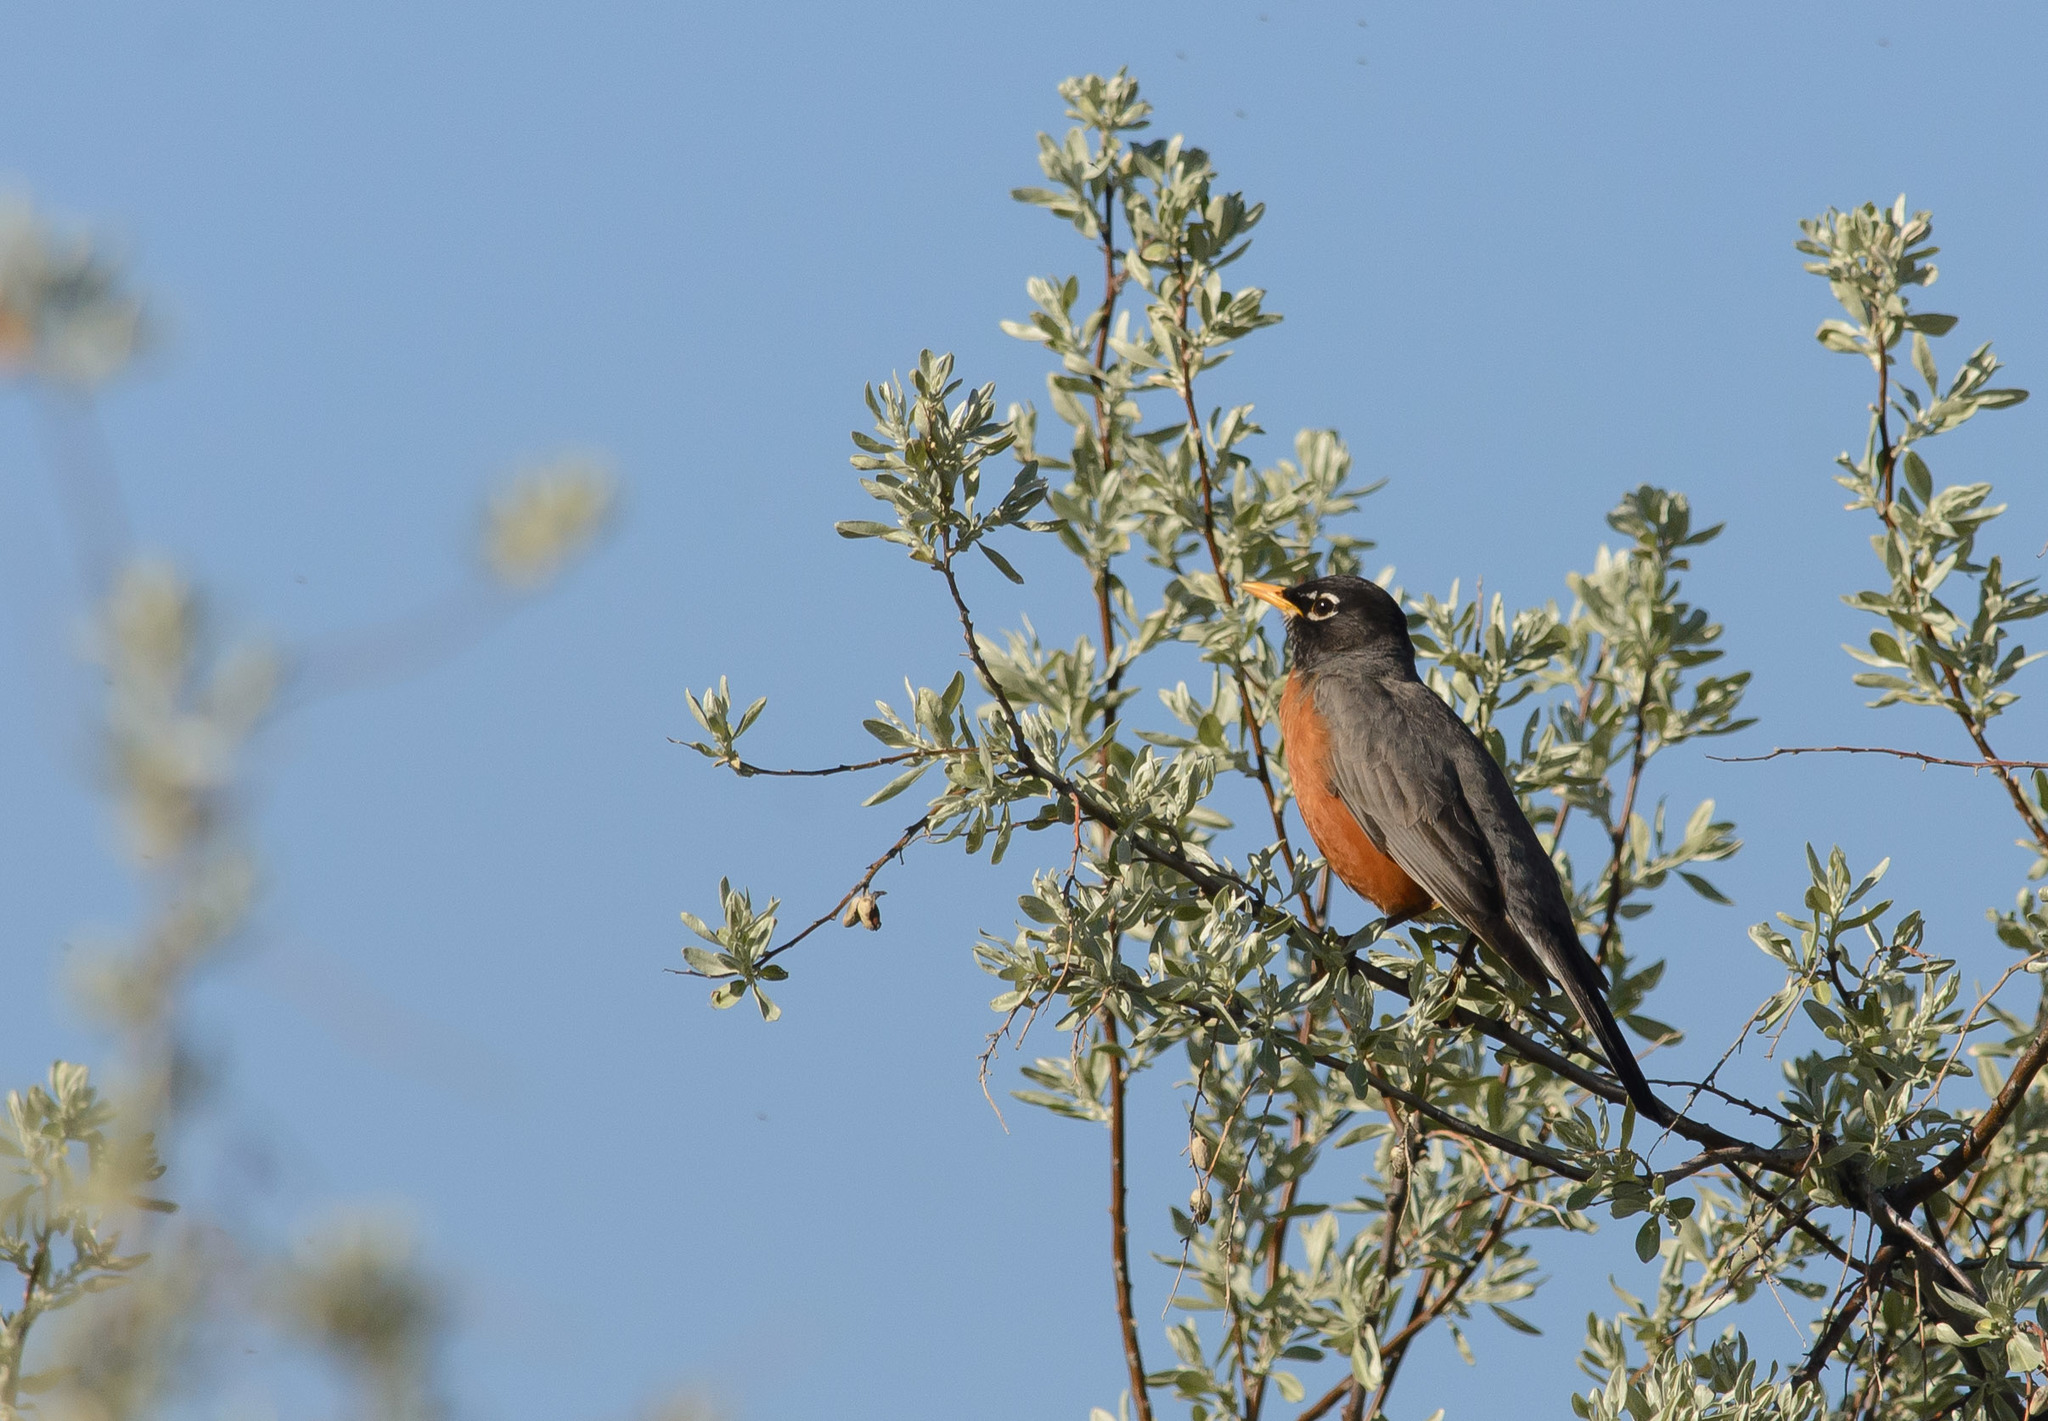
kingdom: Animalia
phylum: Chordata
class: Aves
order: Passeriformes
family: Turdidae
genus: Turdus
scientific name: Turdus migratorius
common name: American robin
